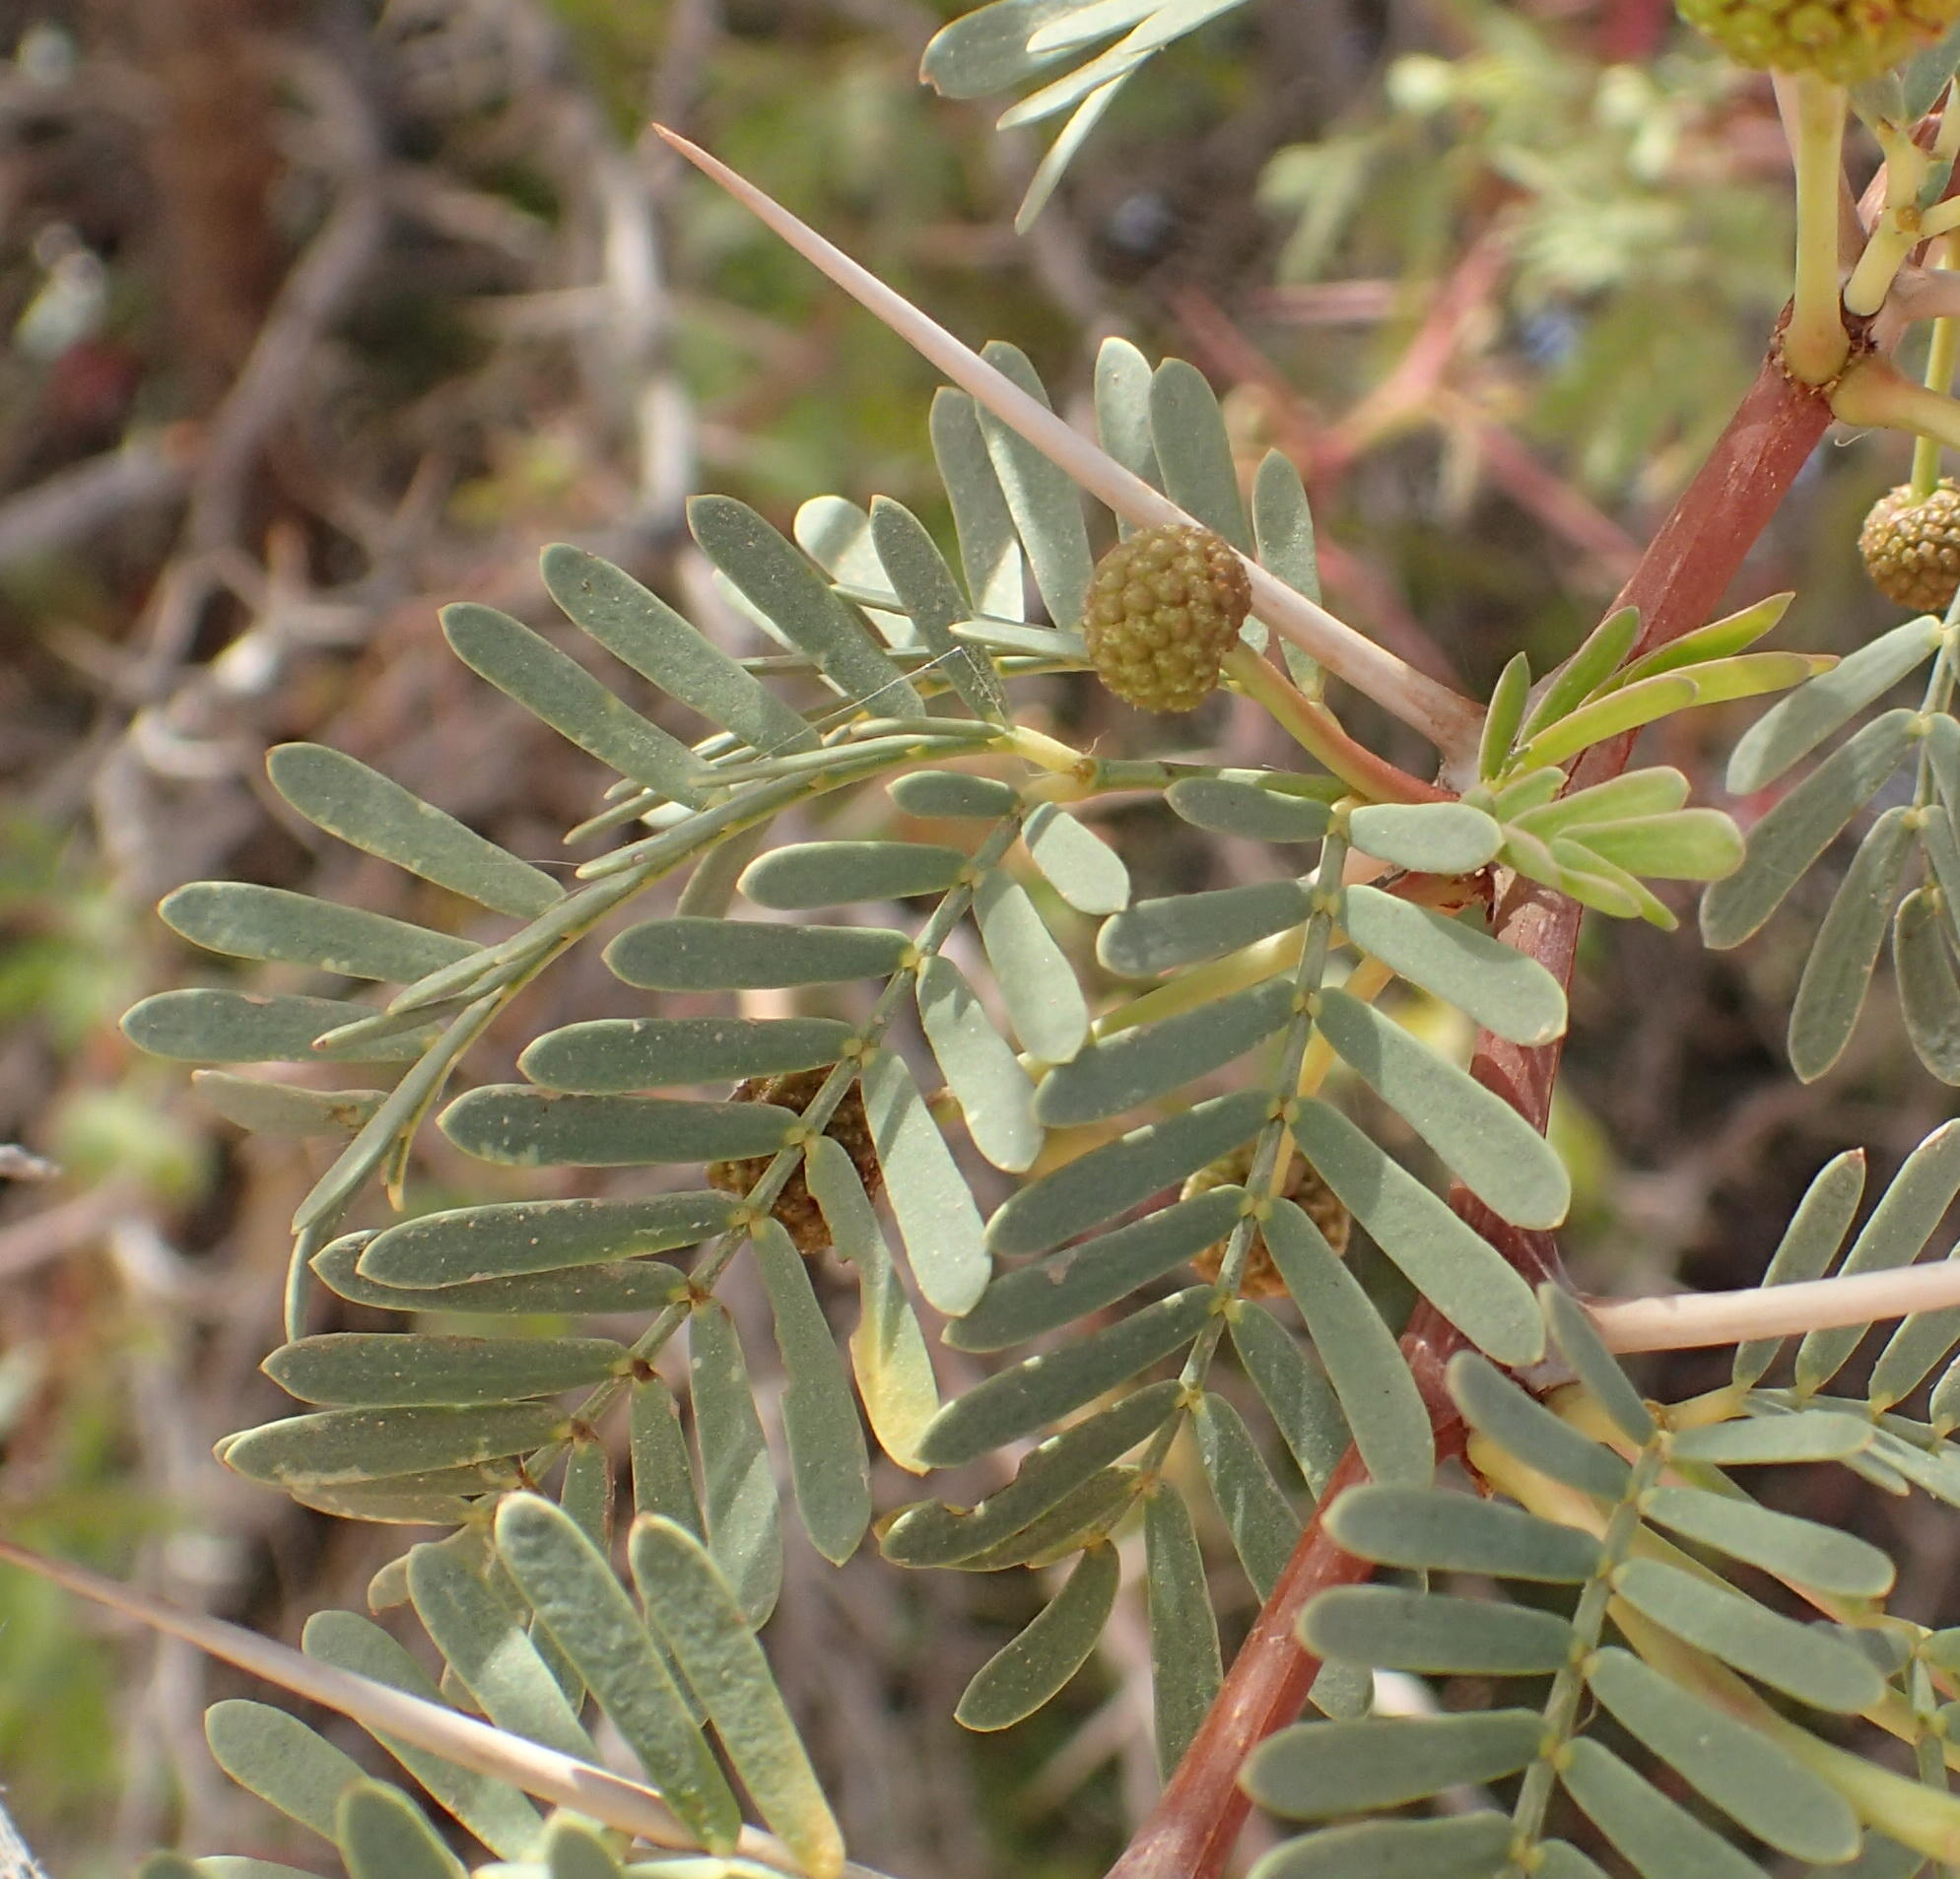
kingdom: Plantae
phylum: Tracheophyta
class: Magnoliopsida
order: Fabales
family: Fabaceae
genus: Vachellia
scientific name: Vachellia karroo
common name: Sweet thorn
